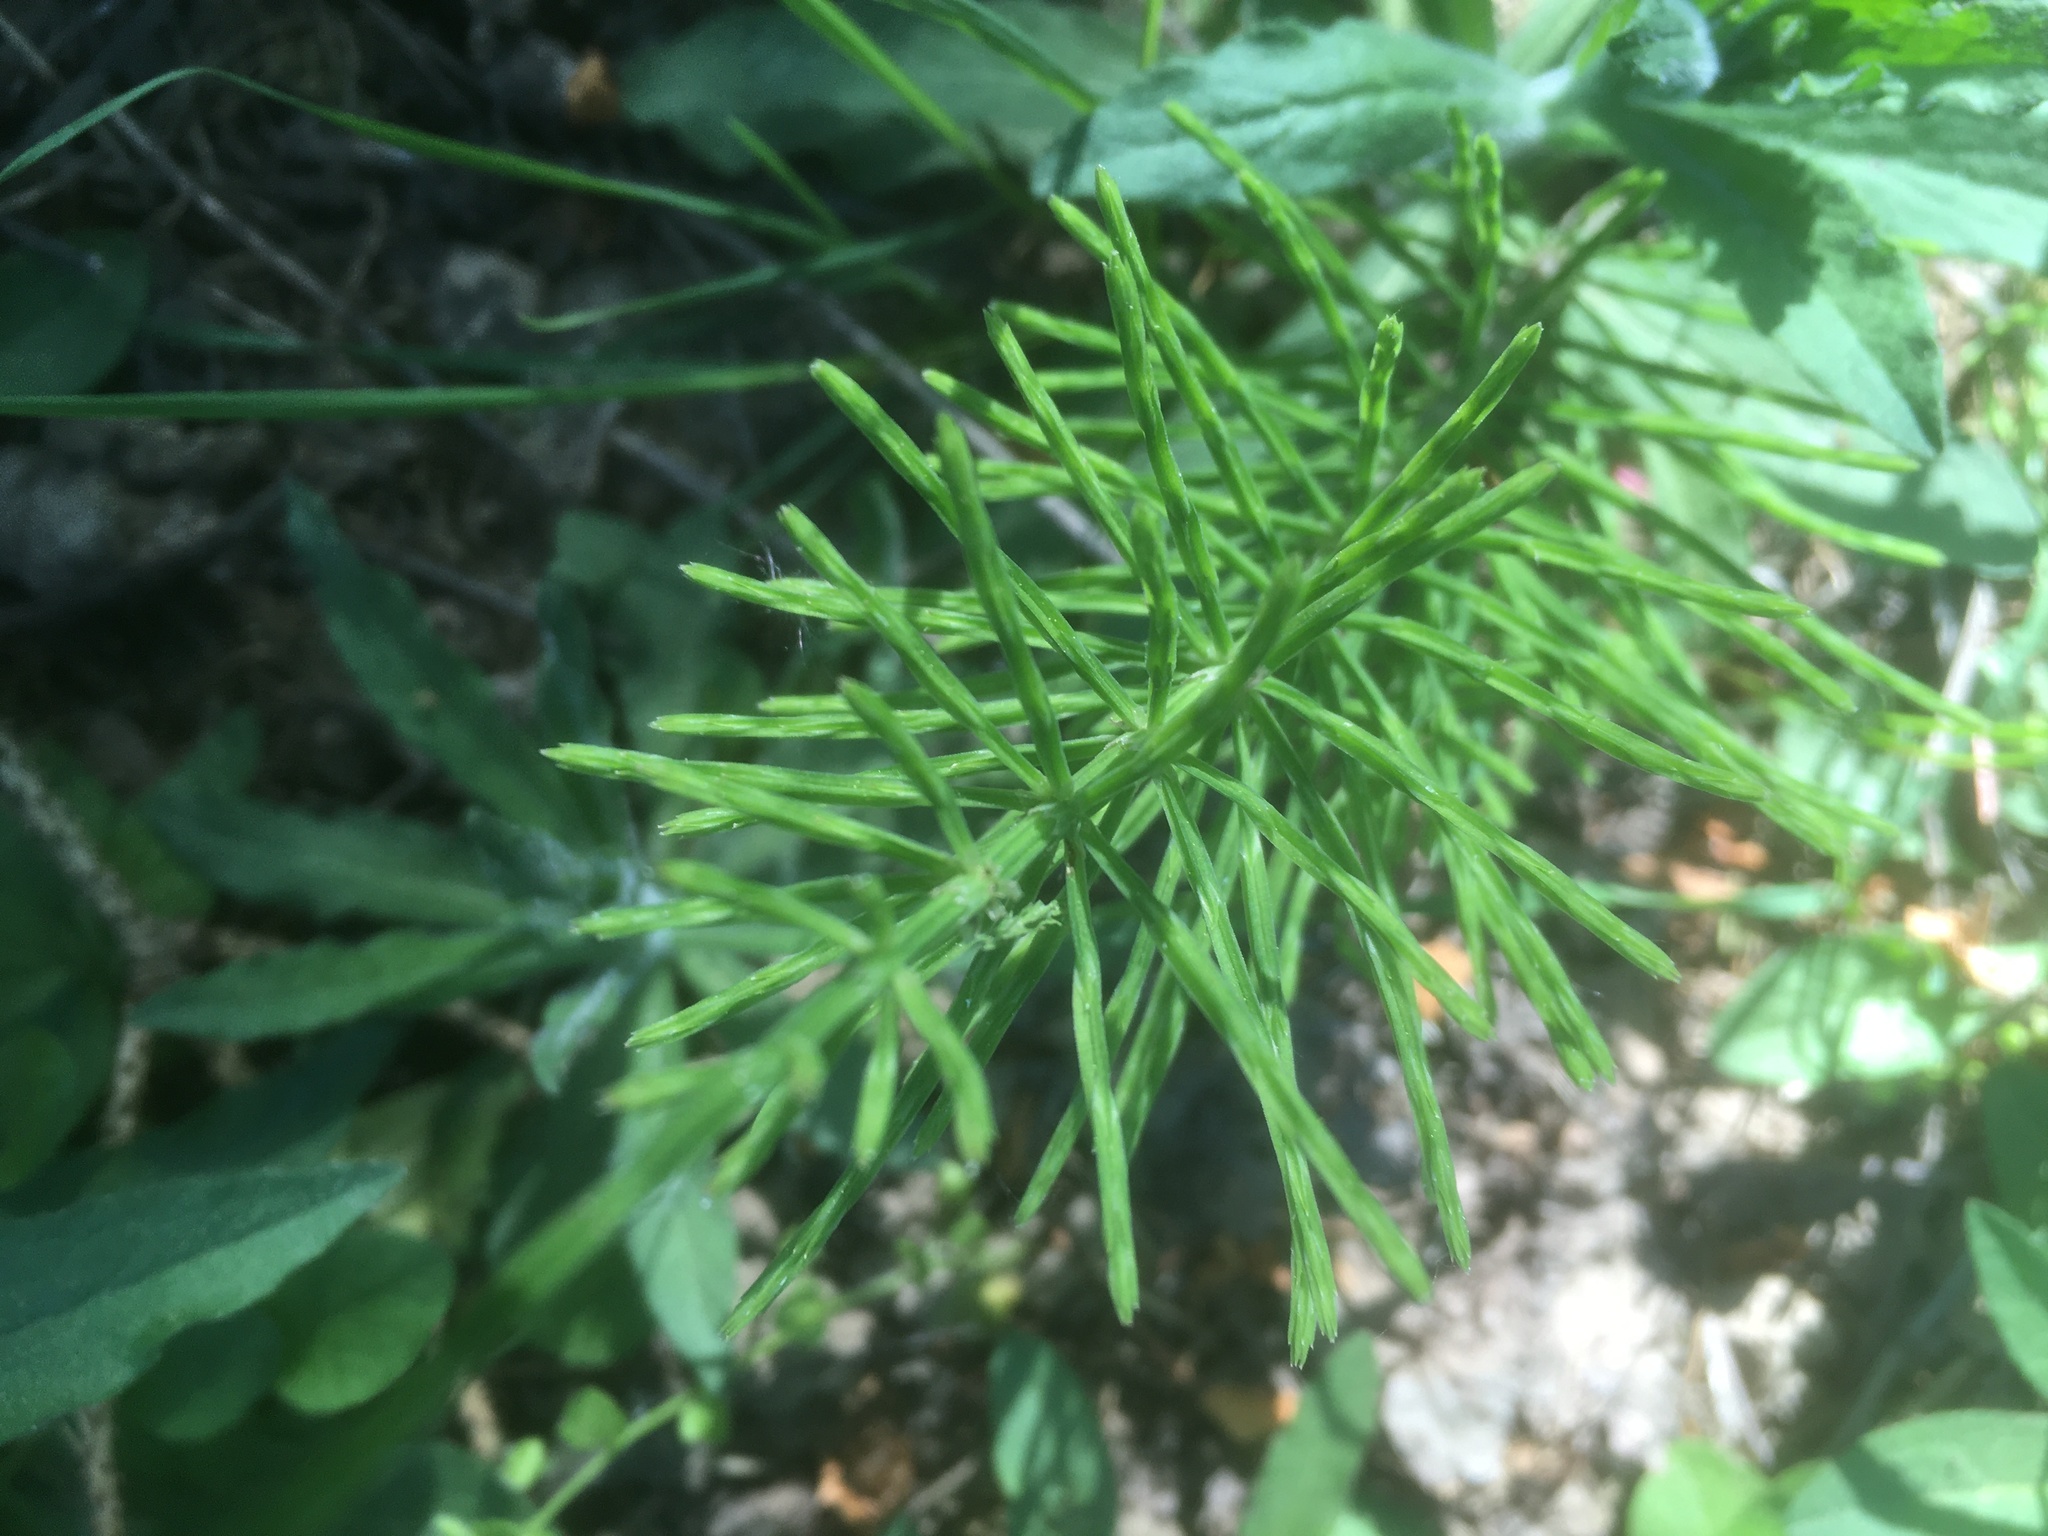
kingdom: Plantae
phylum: Tracheophyta
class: Polypodiopsida
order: Equisetales
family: Equisetaceae
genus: Equisetum
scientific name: Equisetum arvense
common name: Field horsetail
